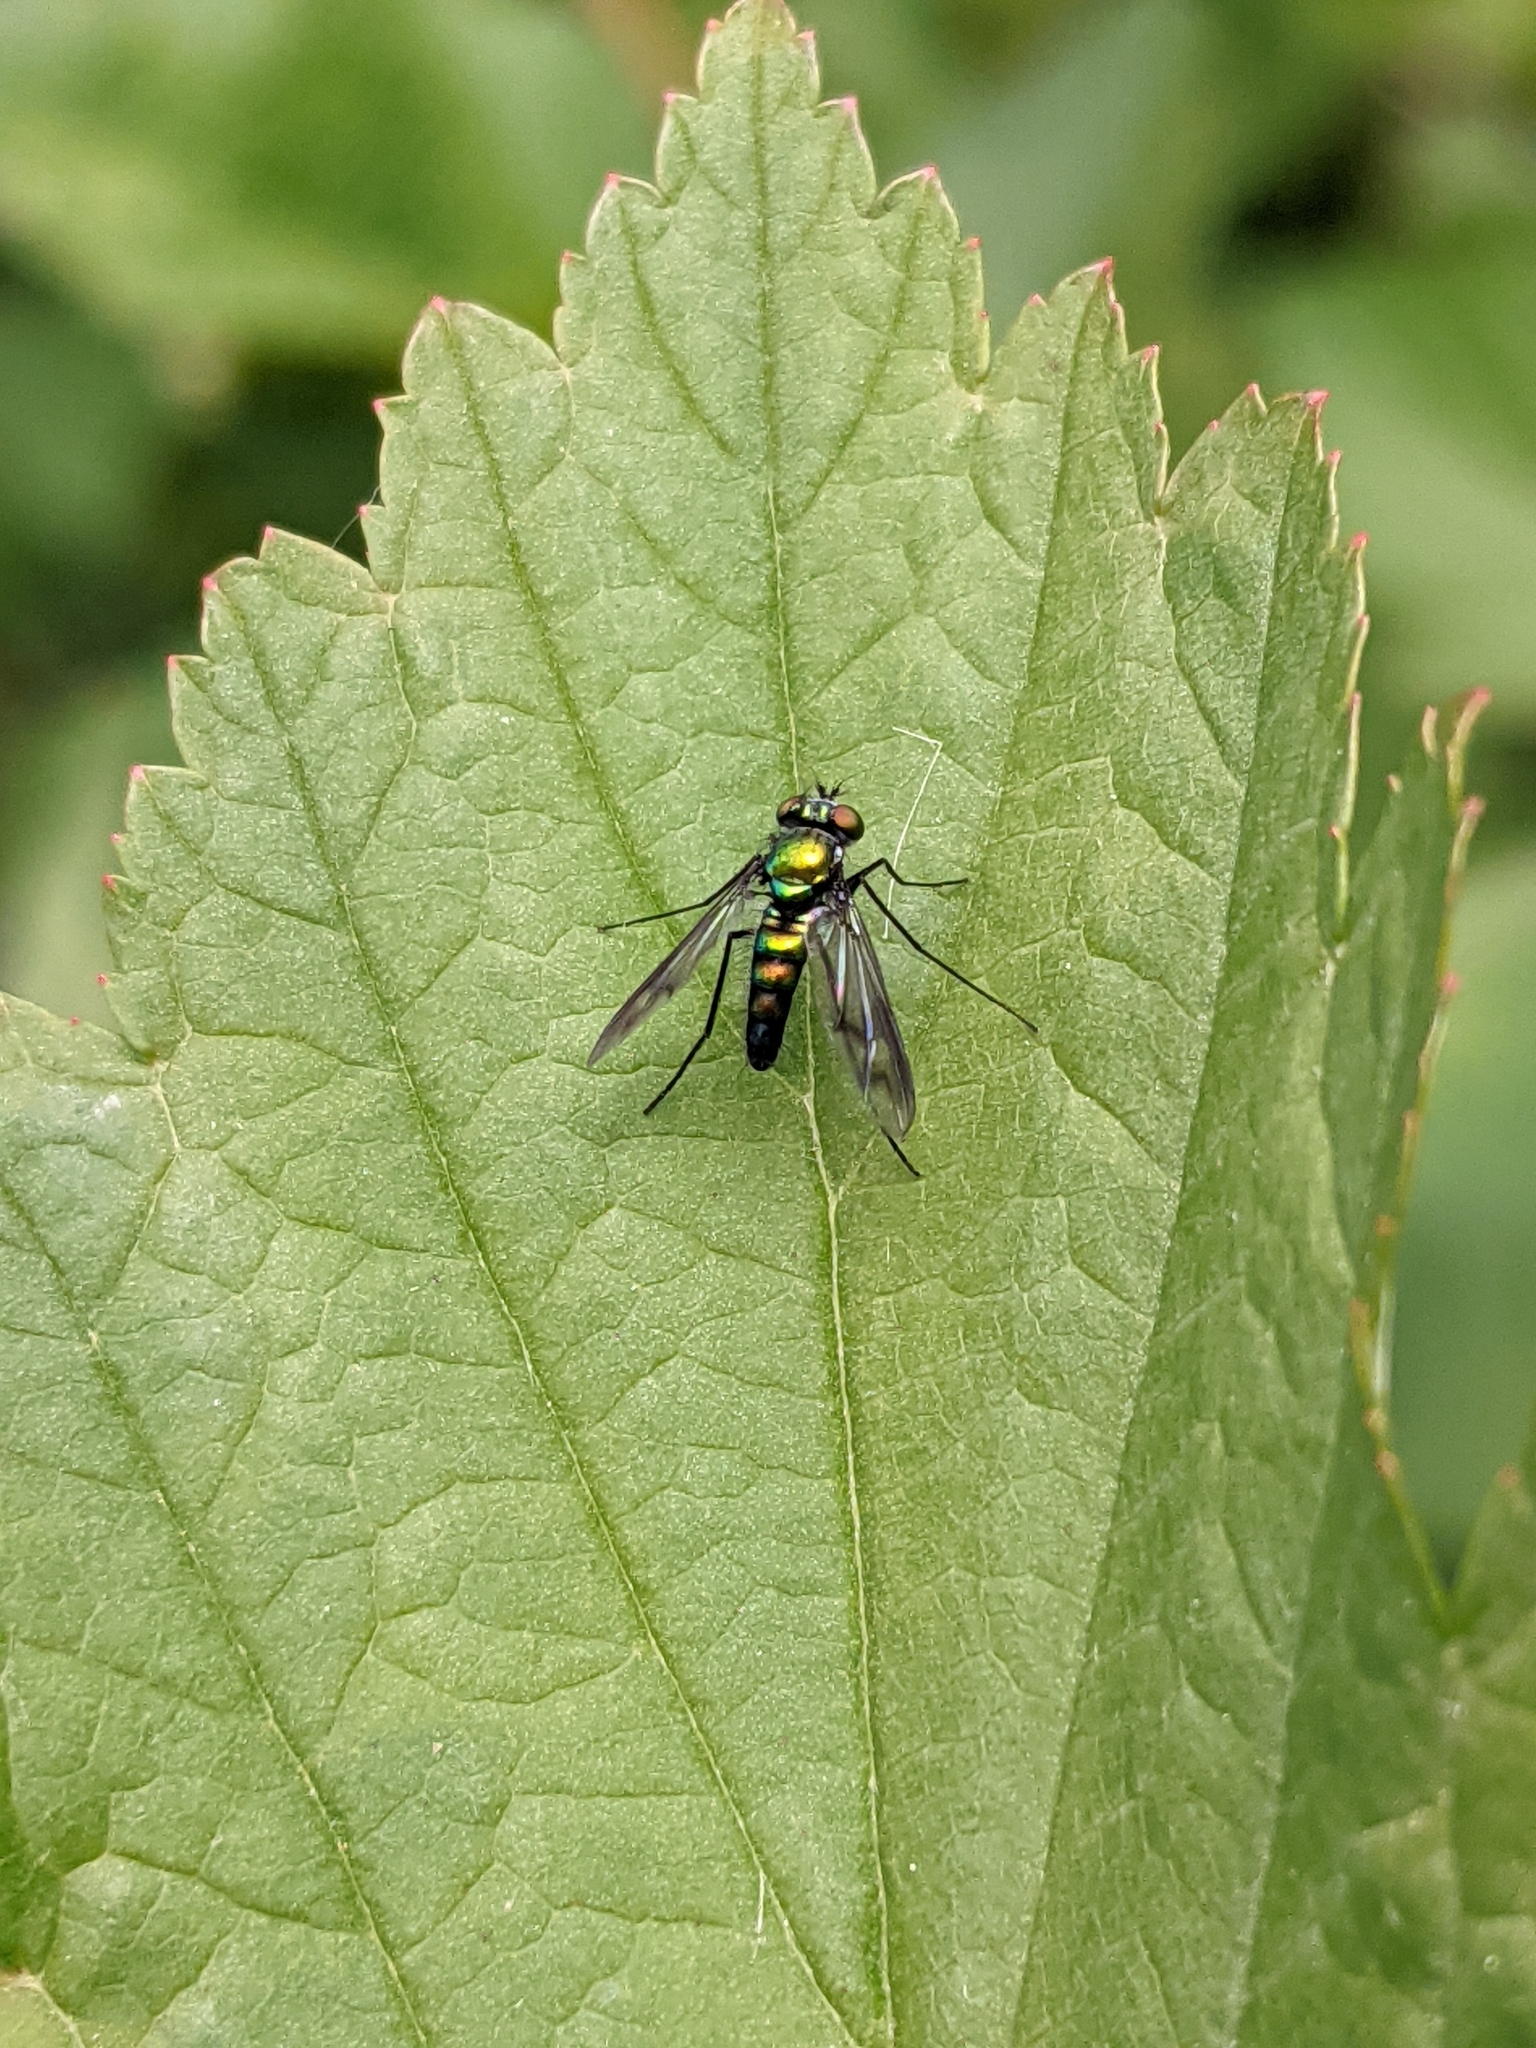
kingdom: Animalia
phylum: Arthropoda
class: Insecta
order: Diptera
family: Dolichopodidae
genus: Condylostylus
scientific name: Condylostylus patibulatus
